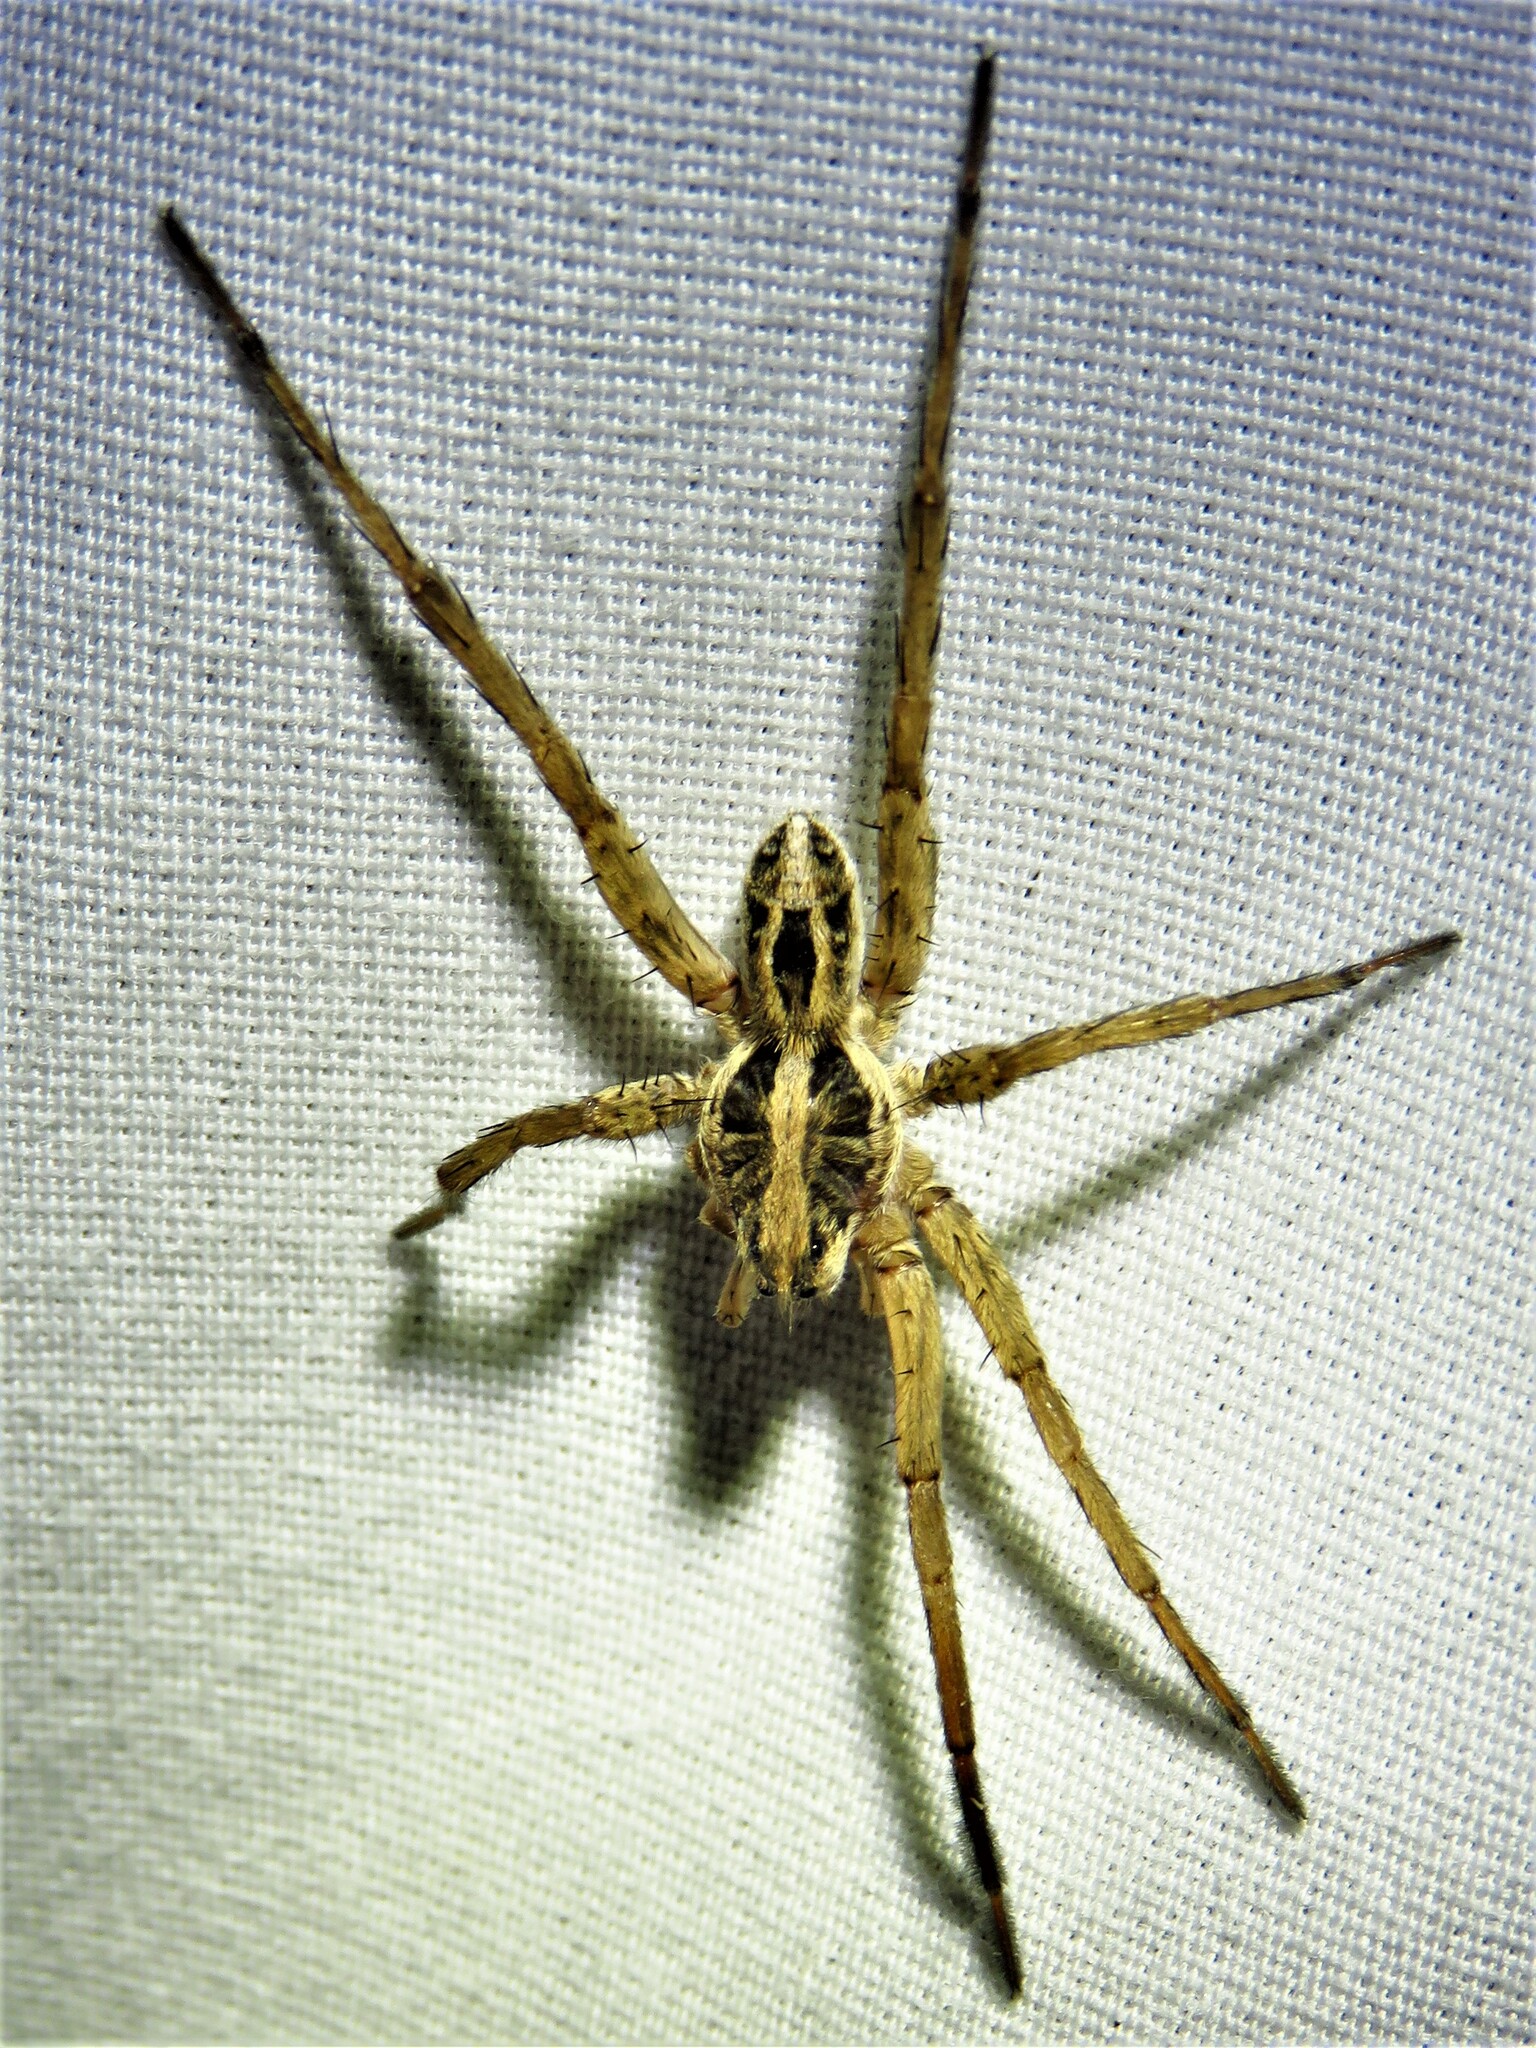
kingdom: Animalia
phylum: Arthropoda
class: Arachnida
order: Araneae
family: Lycosidae
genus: Schizocosa
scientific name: Schizocosa avida
